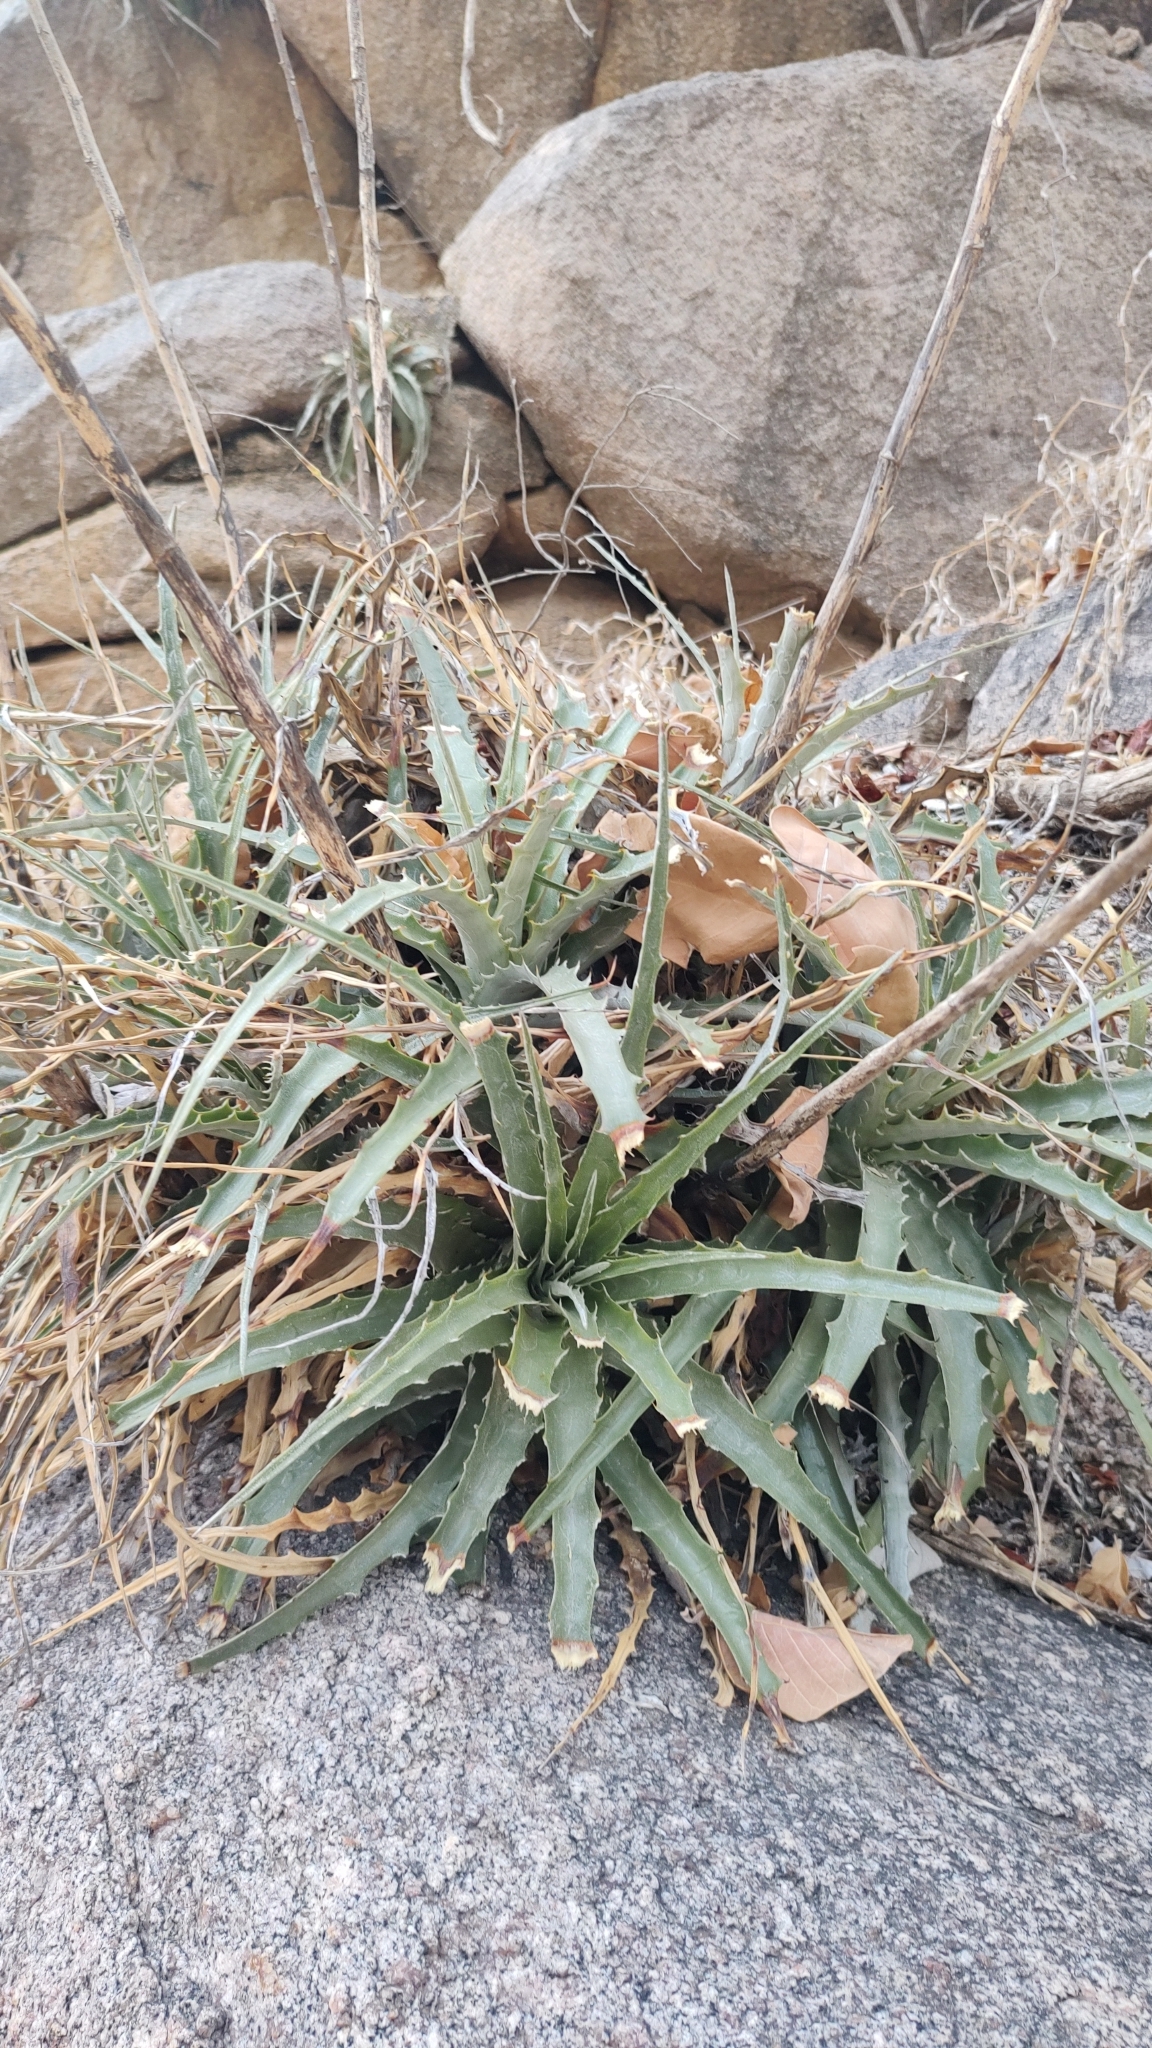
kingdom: Plantae
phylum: Tracheophyta
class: Liliopsida
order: Poales
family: Bromeliaceae
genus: Hechtia
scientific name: Hechtia montana
